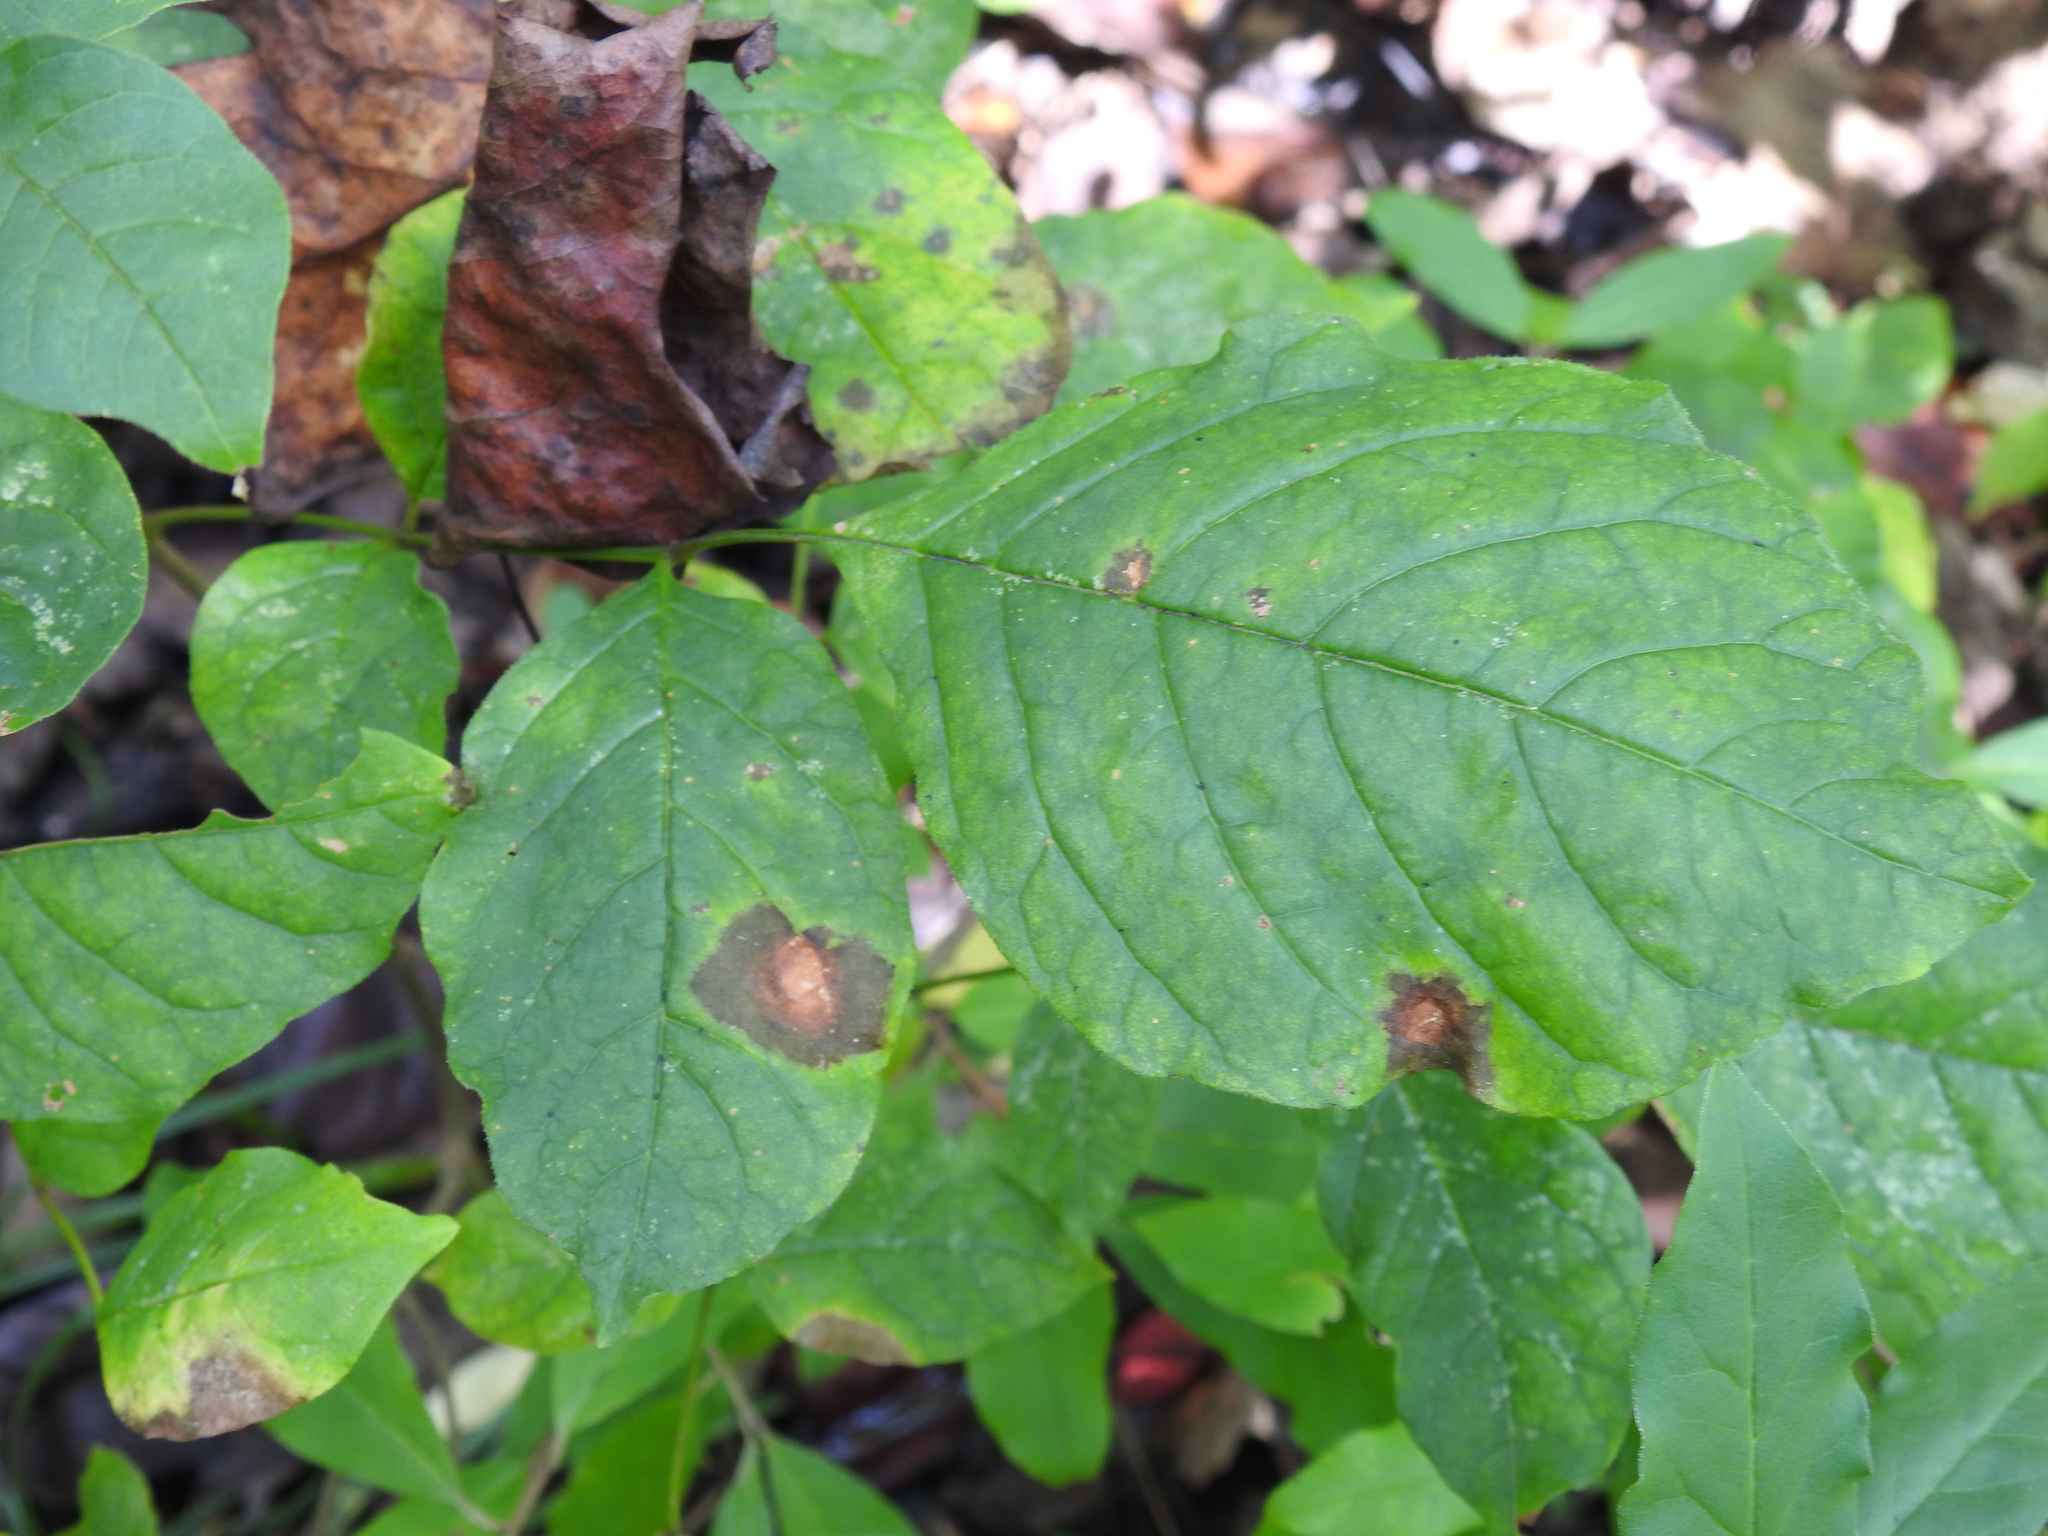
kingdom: Fungi
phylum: Ascomycota
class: Dothideomycetes
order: Mycosphaerellales
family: Mycosphaerellaceae
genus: Mycosphaerella
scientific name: Mycosphaerella fraxinicola
